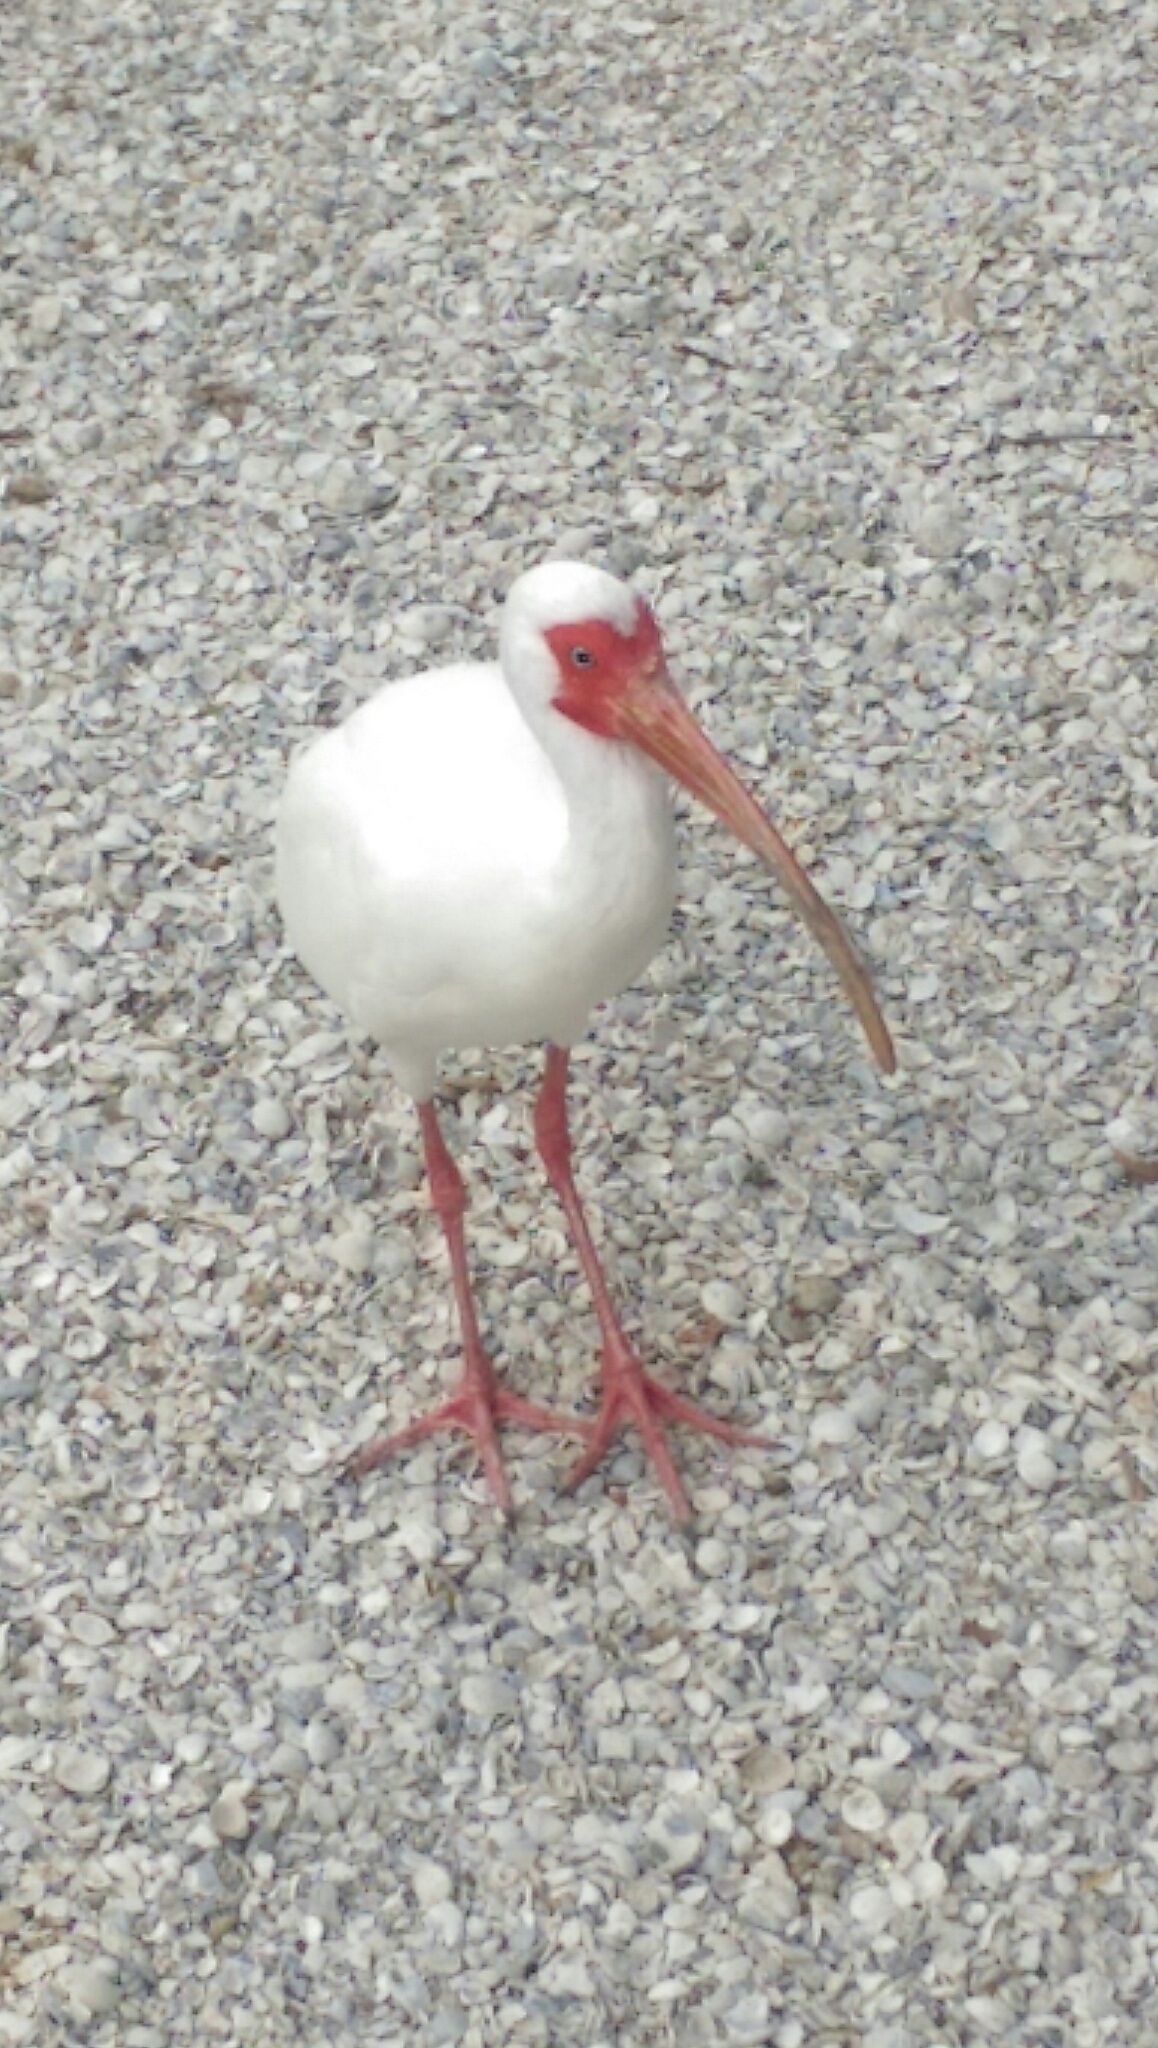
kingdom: Animalia
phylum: Chordata
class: Aves
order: Pelecaniformes
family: Threskiornithidae
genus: Eudocimus
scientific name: Eudocimus albus
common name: White ibis
